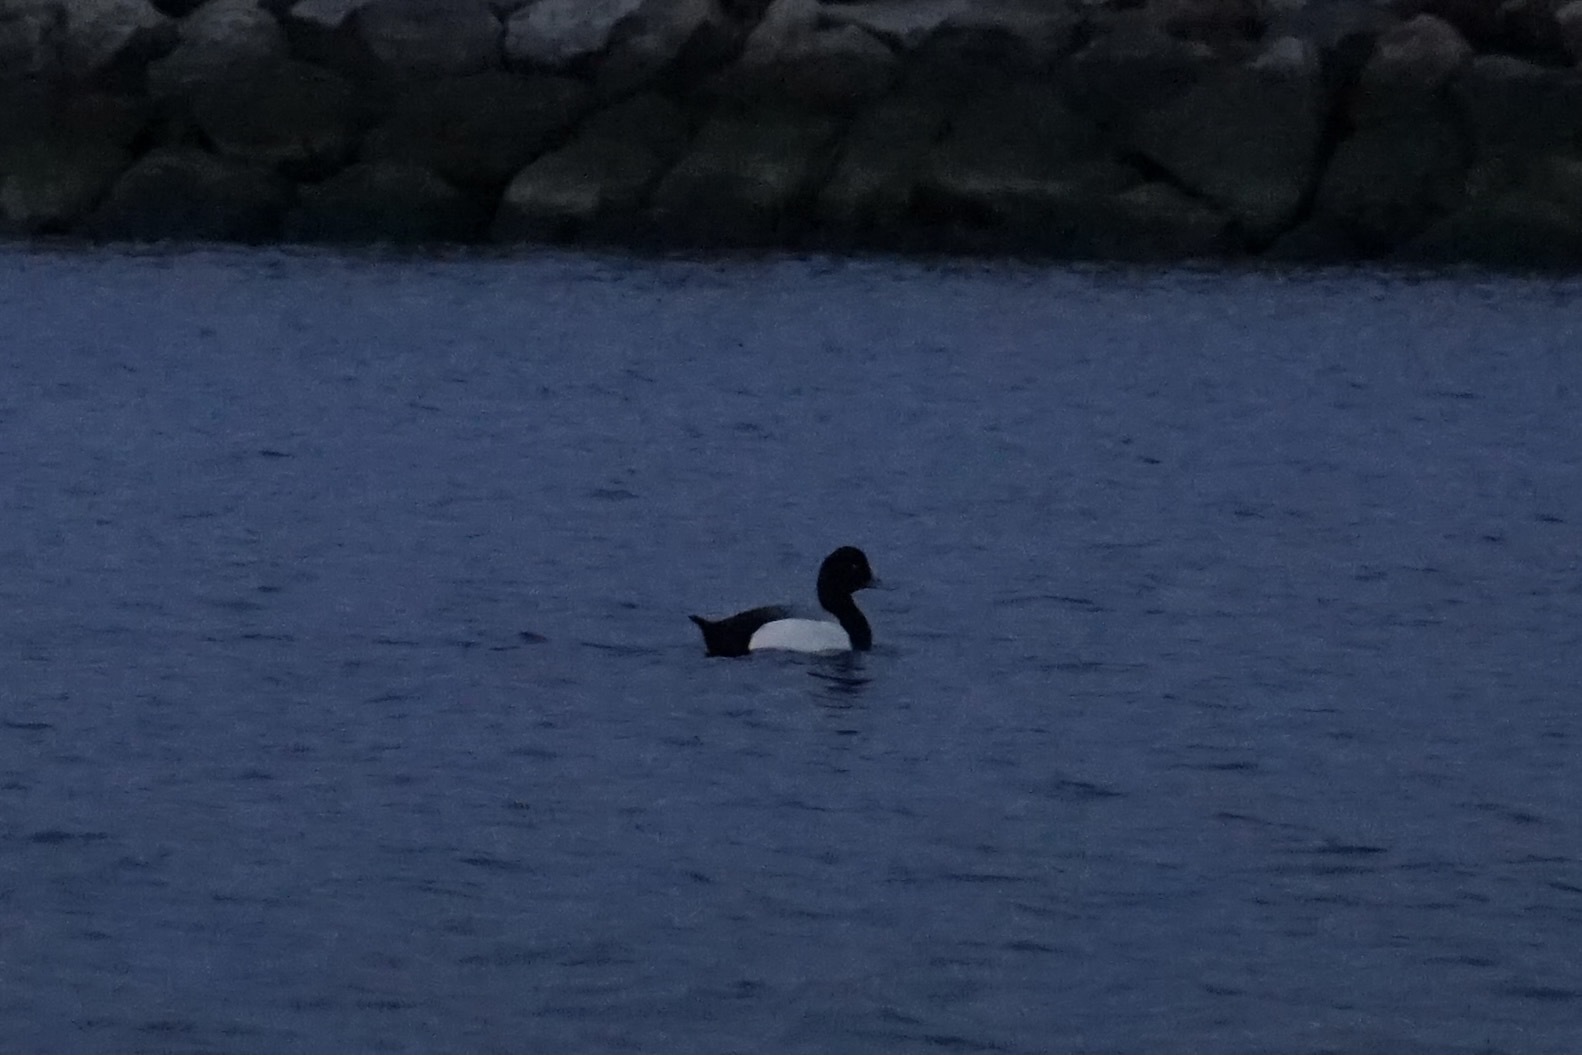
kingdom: Animalia
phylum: Chordata
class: Aves
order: Anseriformes
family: Anatidae
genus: Aythya
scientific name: Aythya marila
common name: Greater scaup
